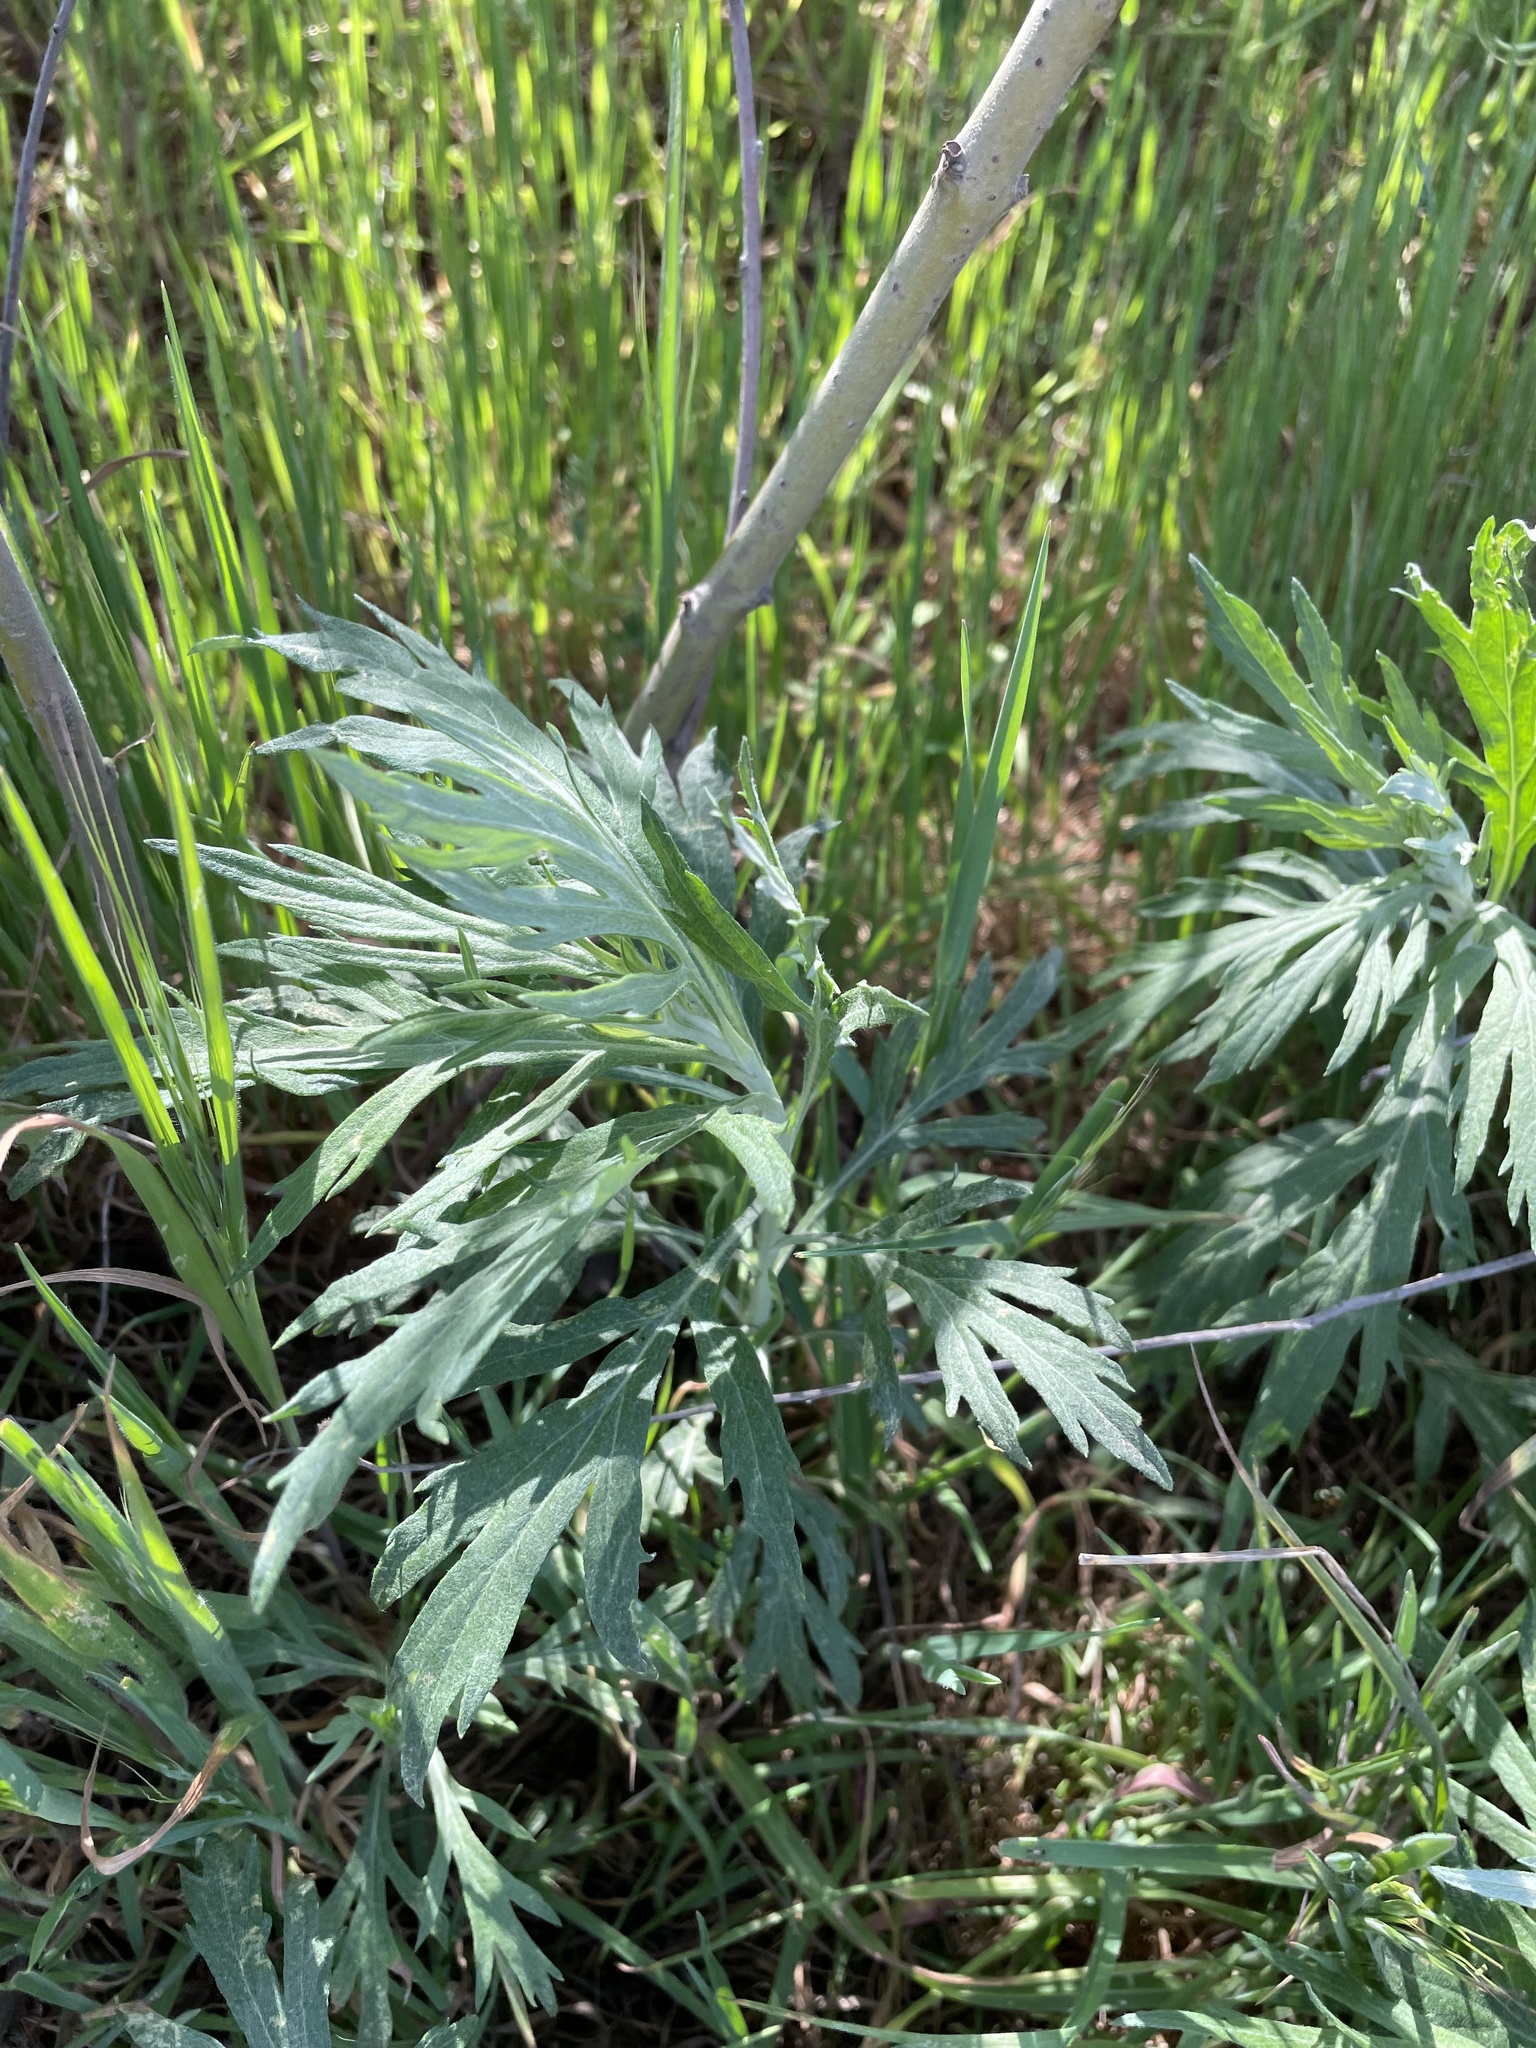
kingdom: Plantae
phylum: Tracheophyta
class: Magnoliopsida
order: Asterales
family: Asteraceae
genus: Artemisia
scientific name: Artemisia douglasiana
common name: Northwest mugwort
